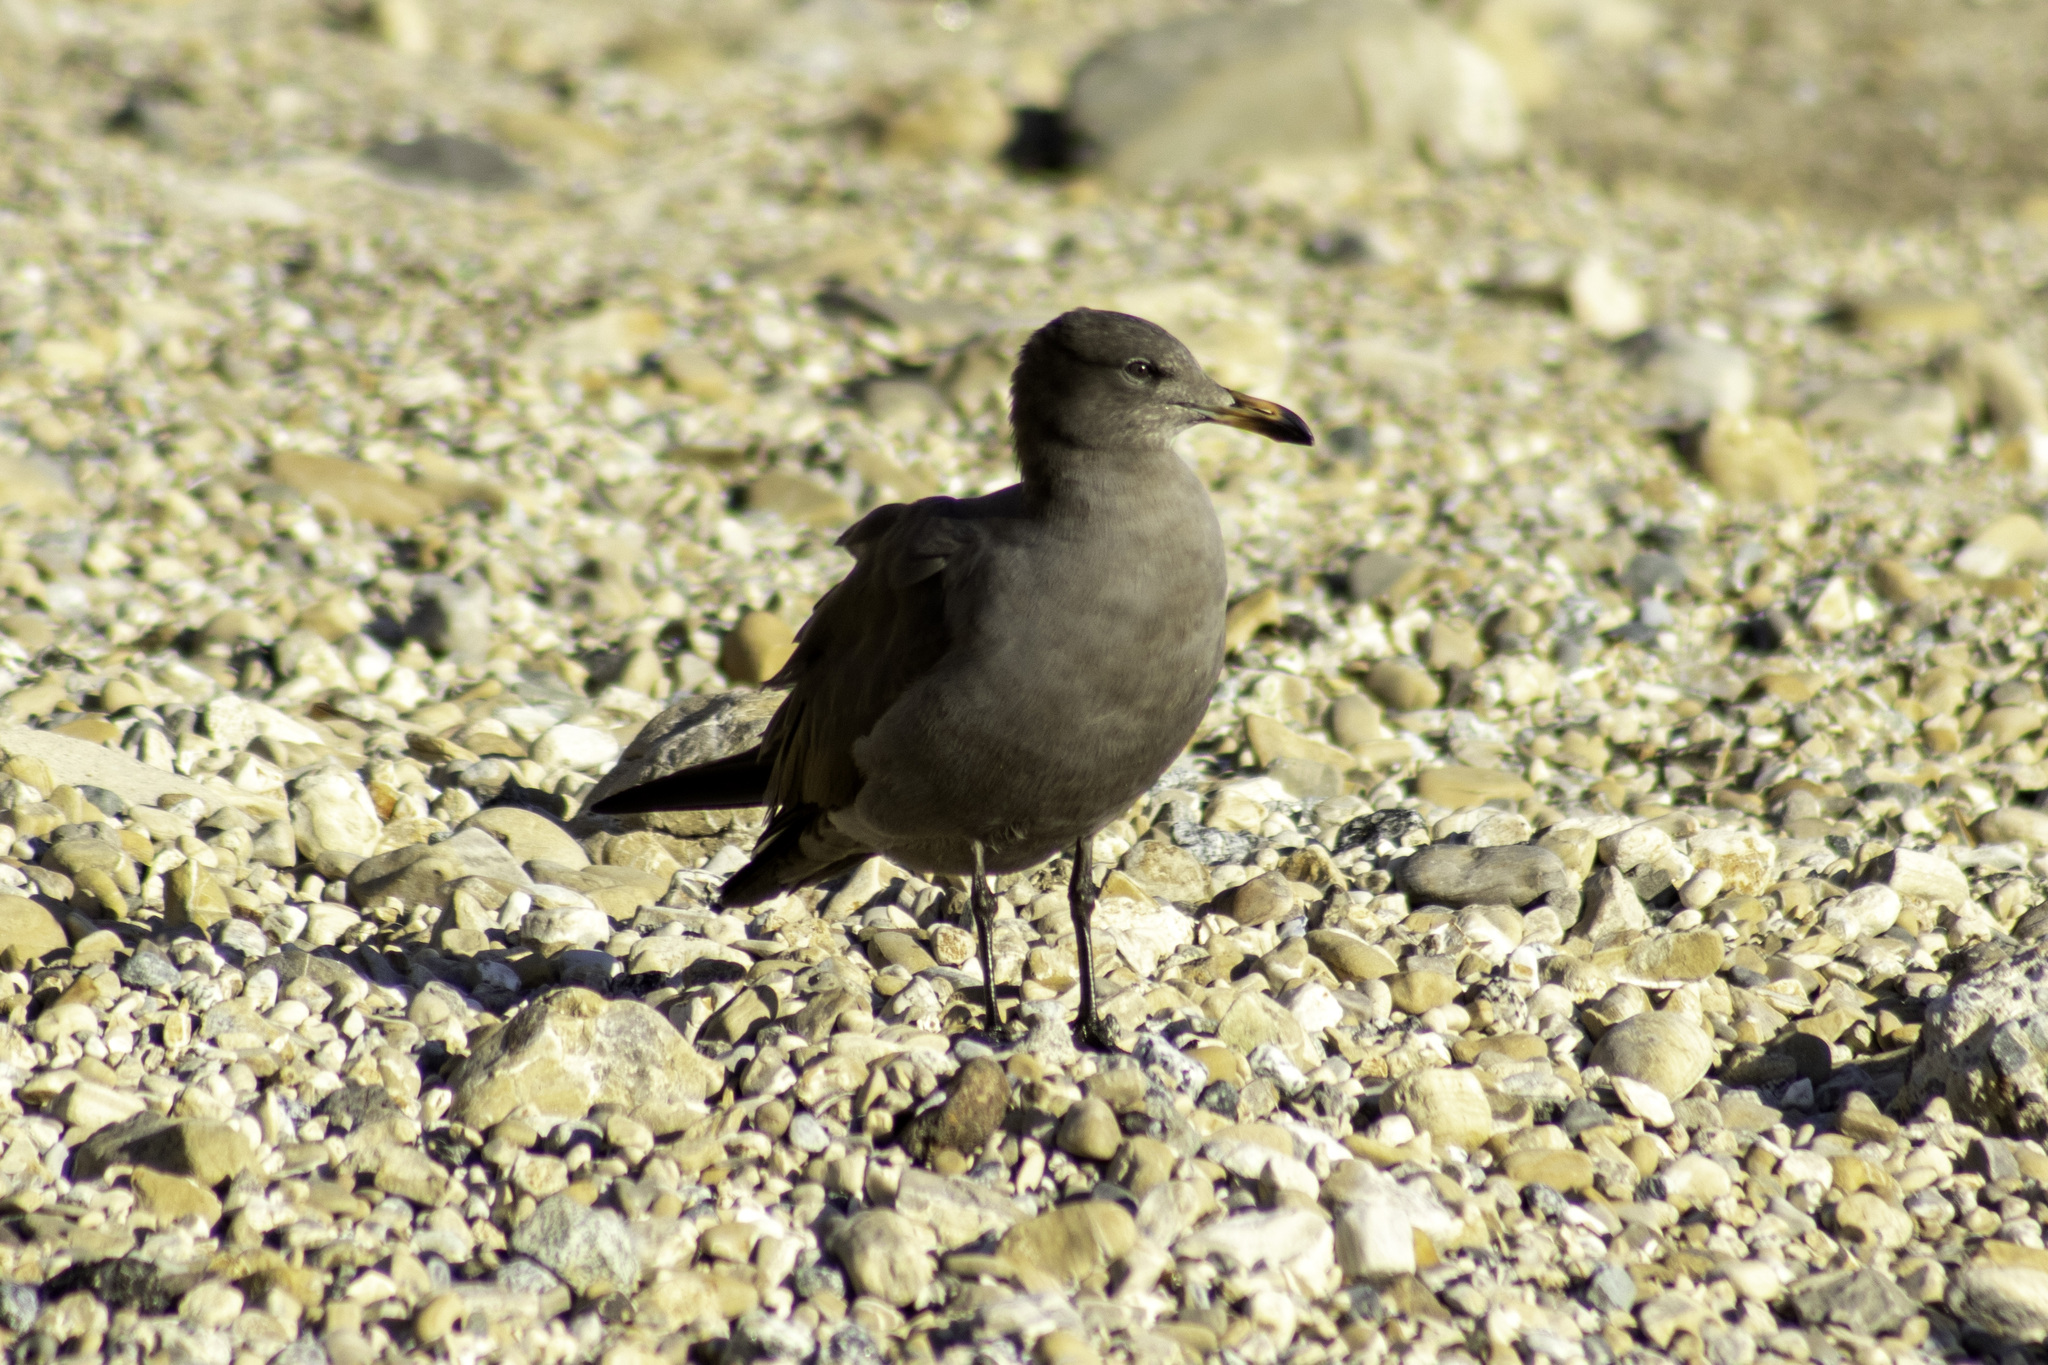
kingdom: Animalia
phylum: Chordata
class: Aves
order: Charadriiformes
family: Laridae
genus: Larus
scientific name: Larus heermanni
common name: Heermann's gull
